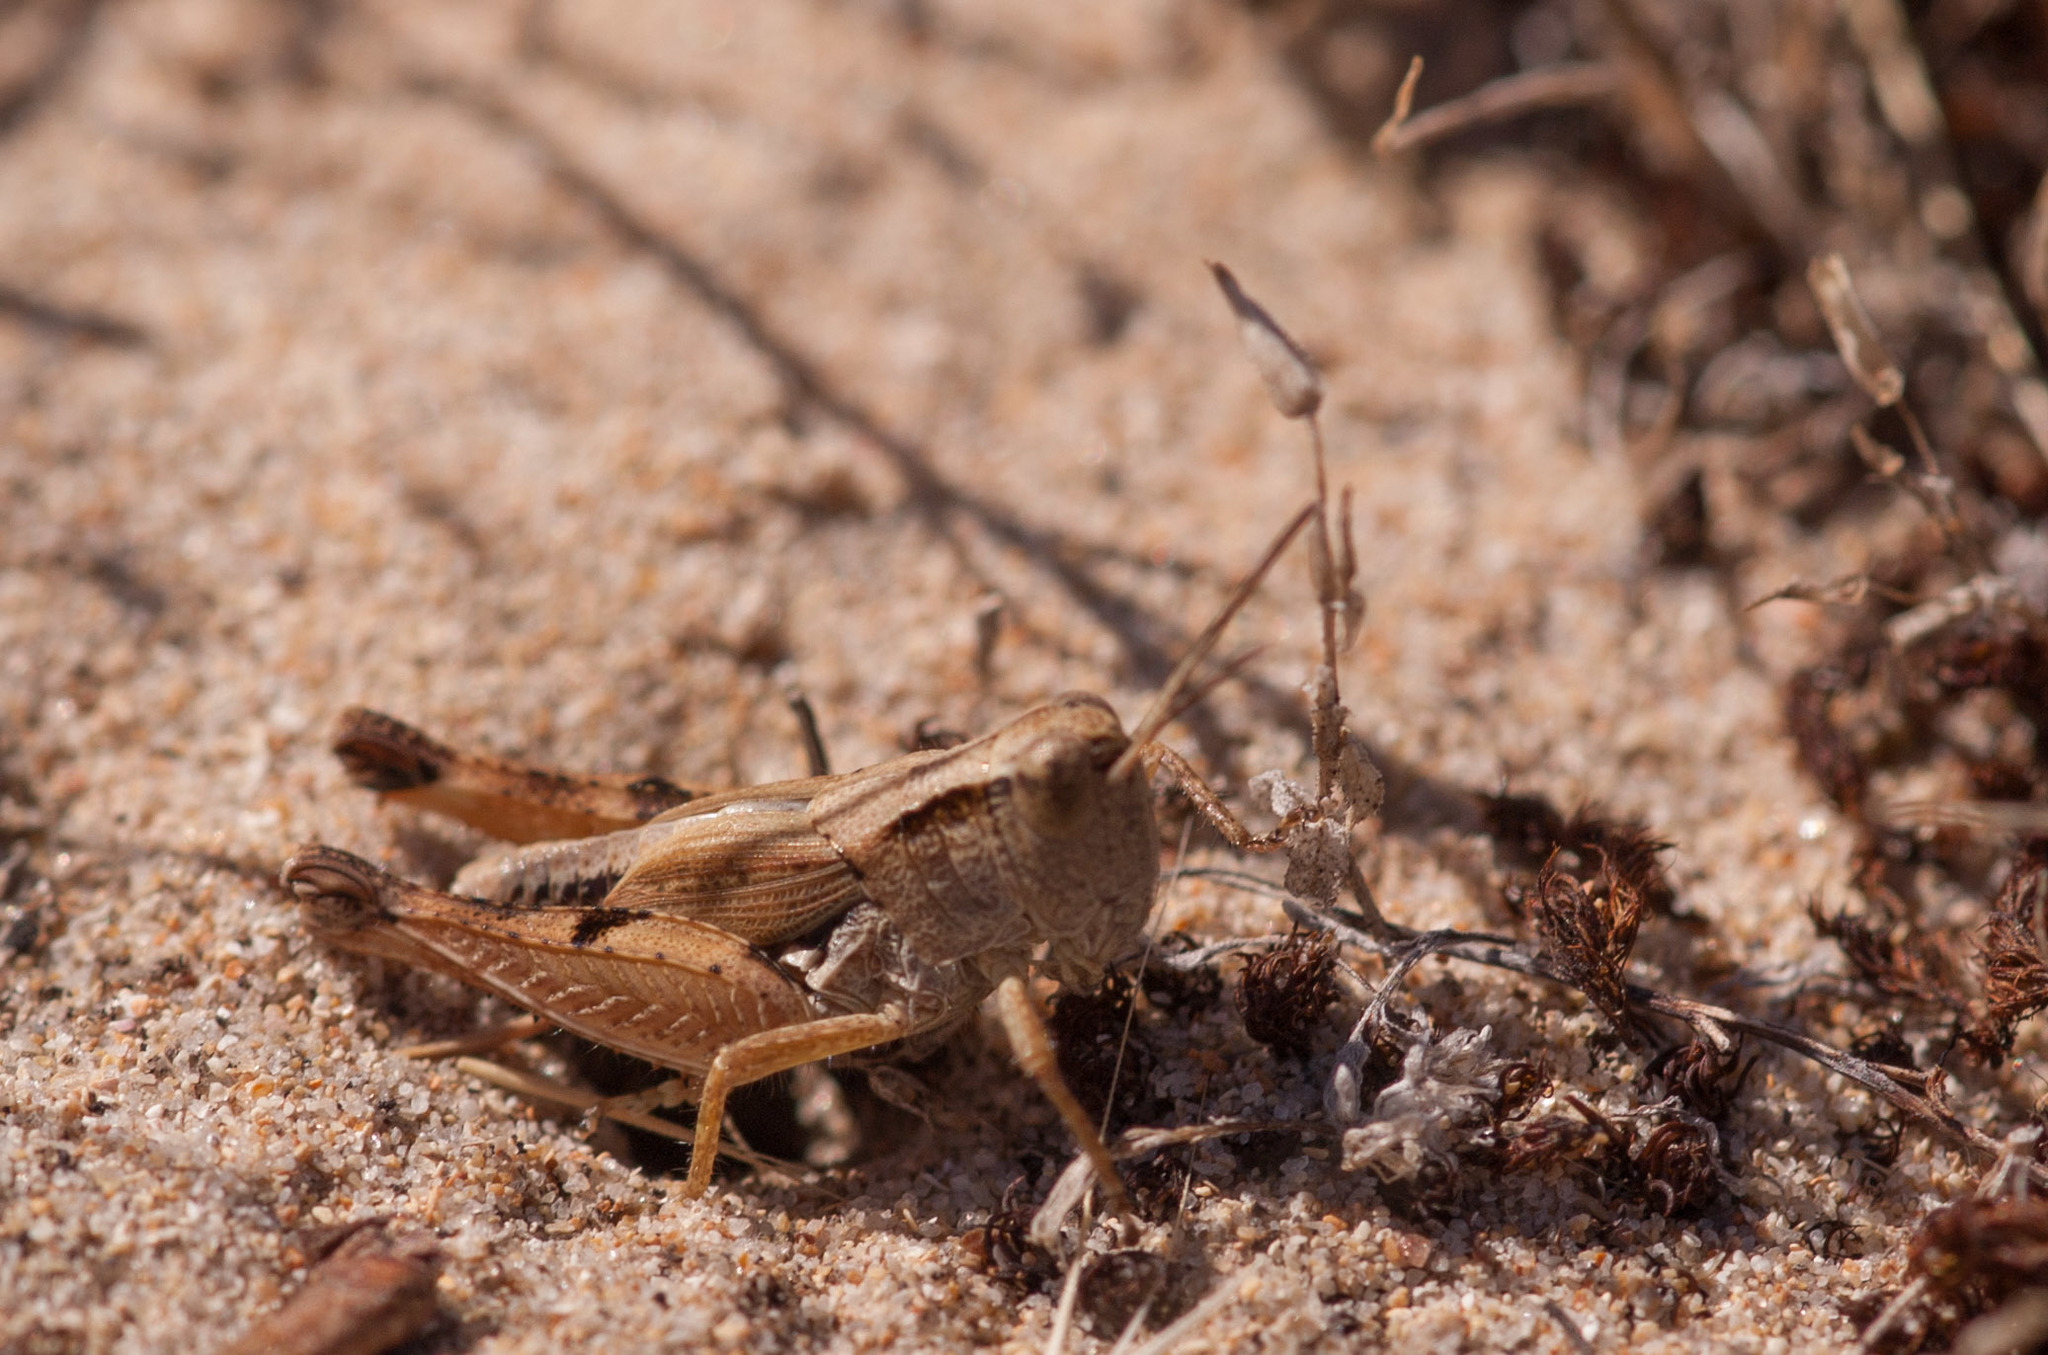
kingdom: Animalia
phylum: Arthropoda
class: Insecta
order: Orthoptera
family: Acrididae
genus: Phaulacridium
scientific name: Phaulacridium vittatum
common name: Wingless grasshopper
